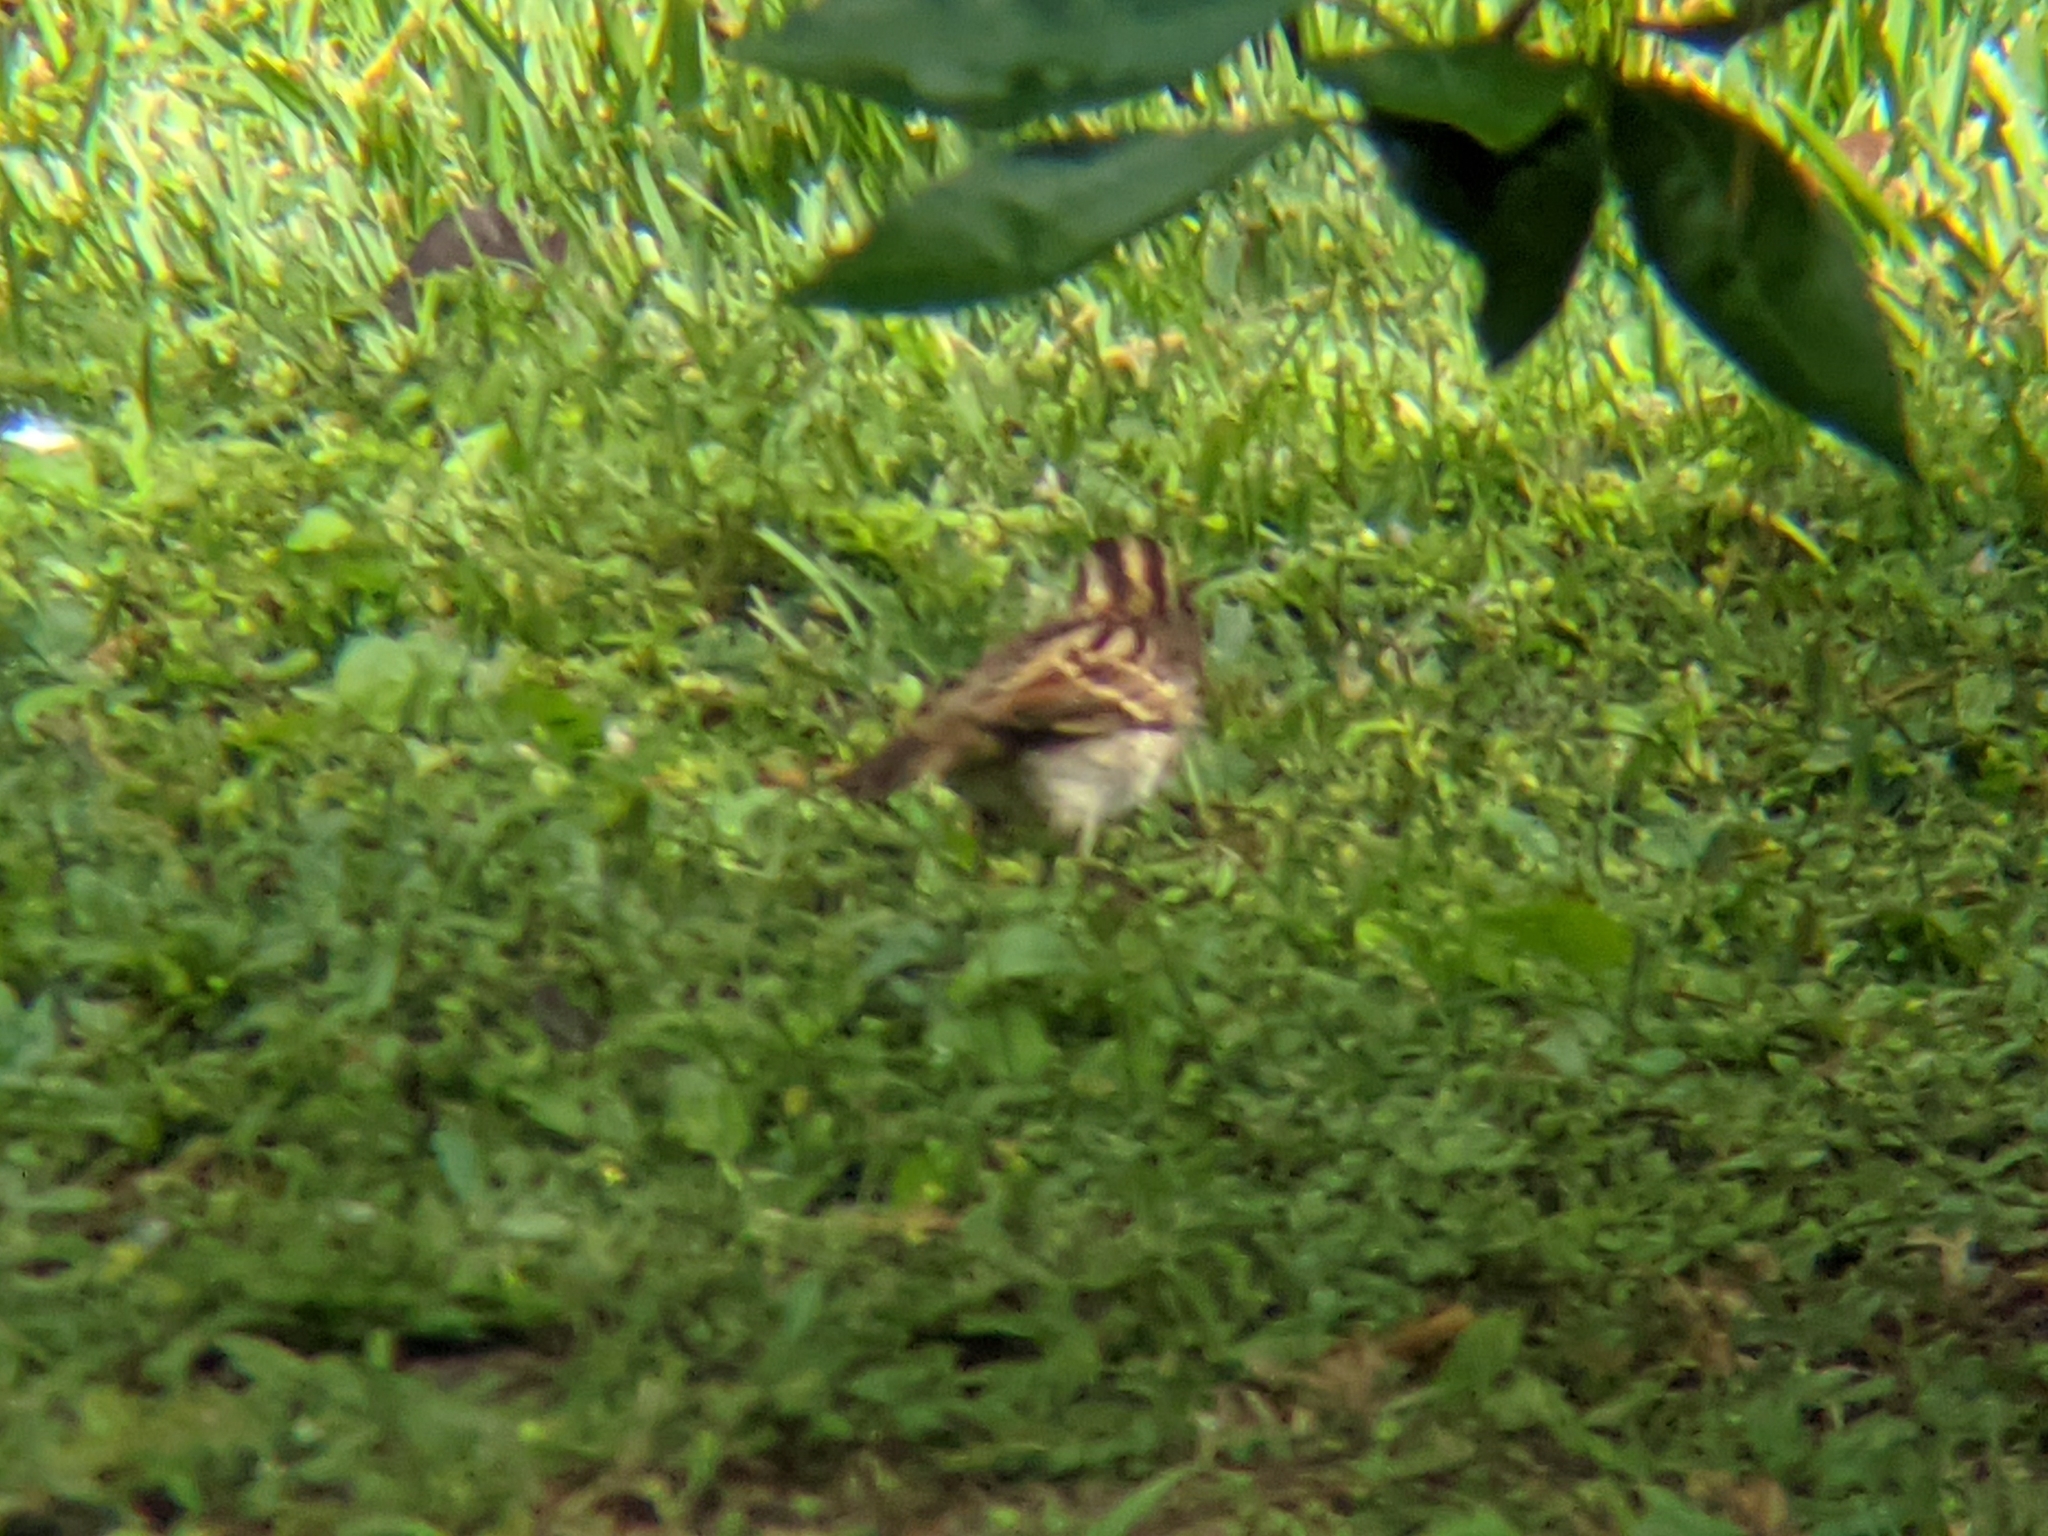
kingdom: Animalia
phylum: Chordata
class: Aves
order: Passeriformes
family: Passerellidae
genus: Zonotrichia
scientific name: Zonotrichia albicollis
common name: White-throated sparrow
